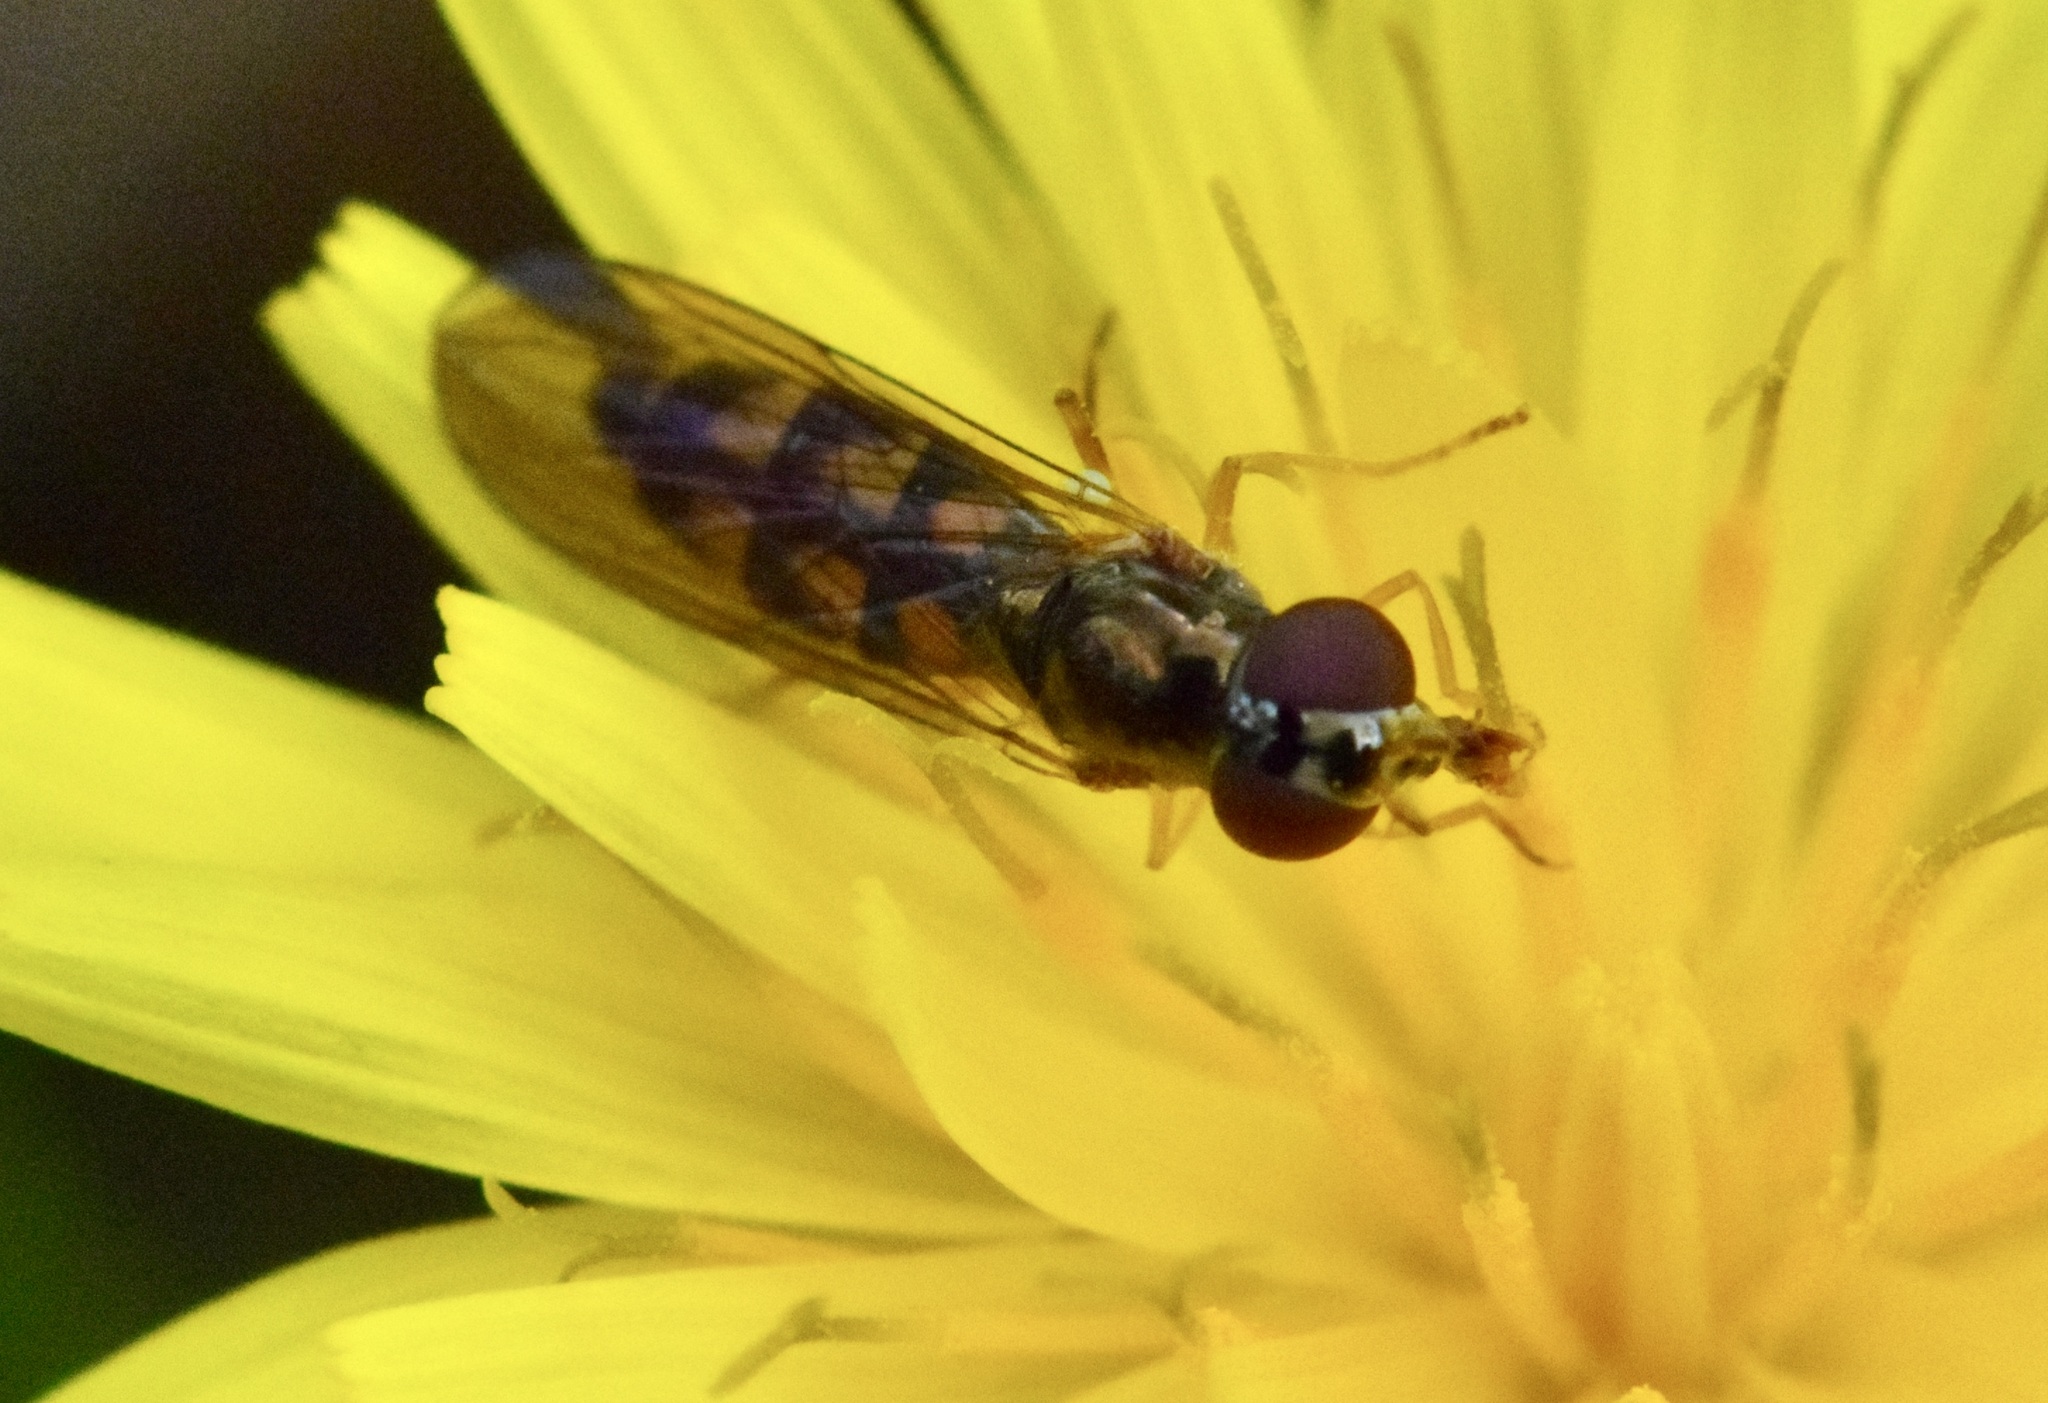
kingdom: Animalia
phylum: Arthropoda
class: Insecta
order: Diptera
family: Syrphidae
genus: Melanostoma
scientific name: Melanostoma mellina
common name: Hover fly
